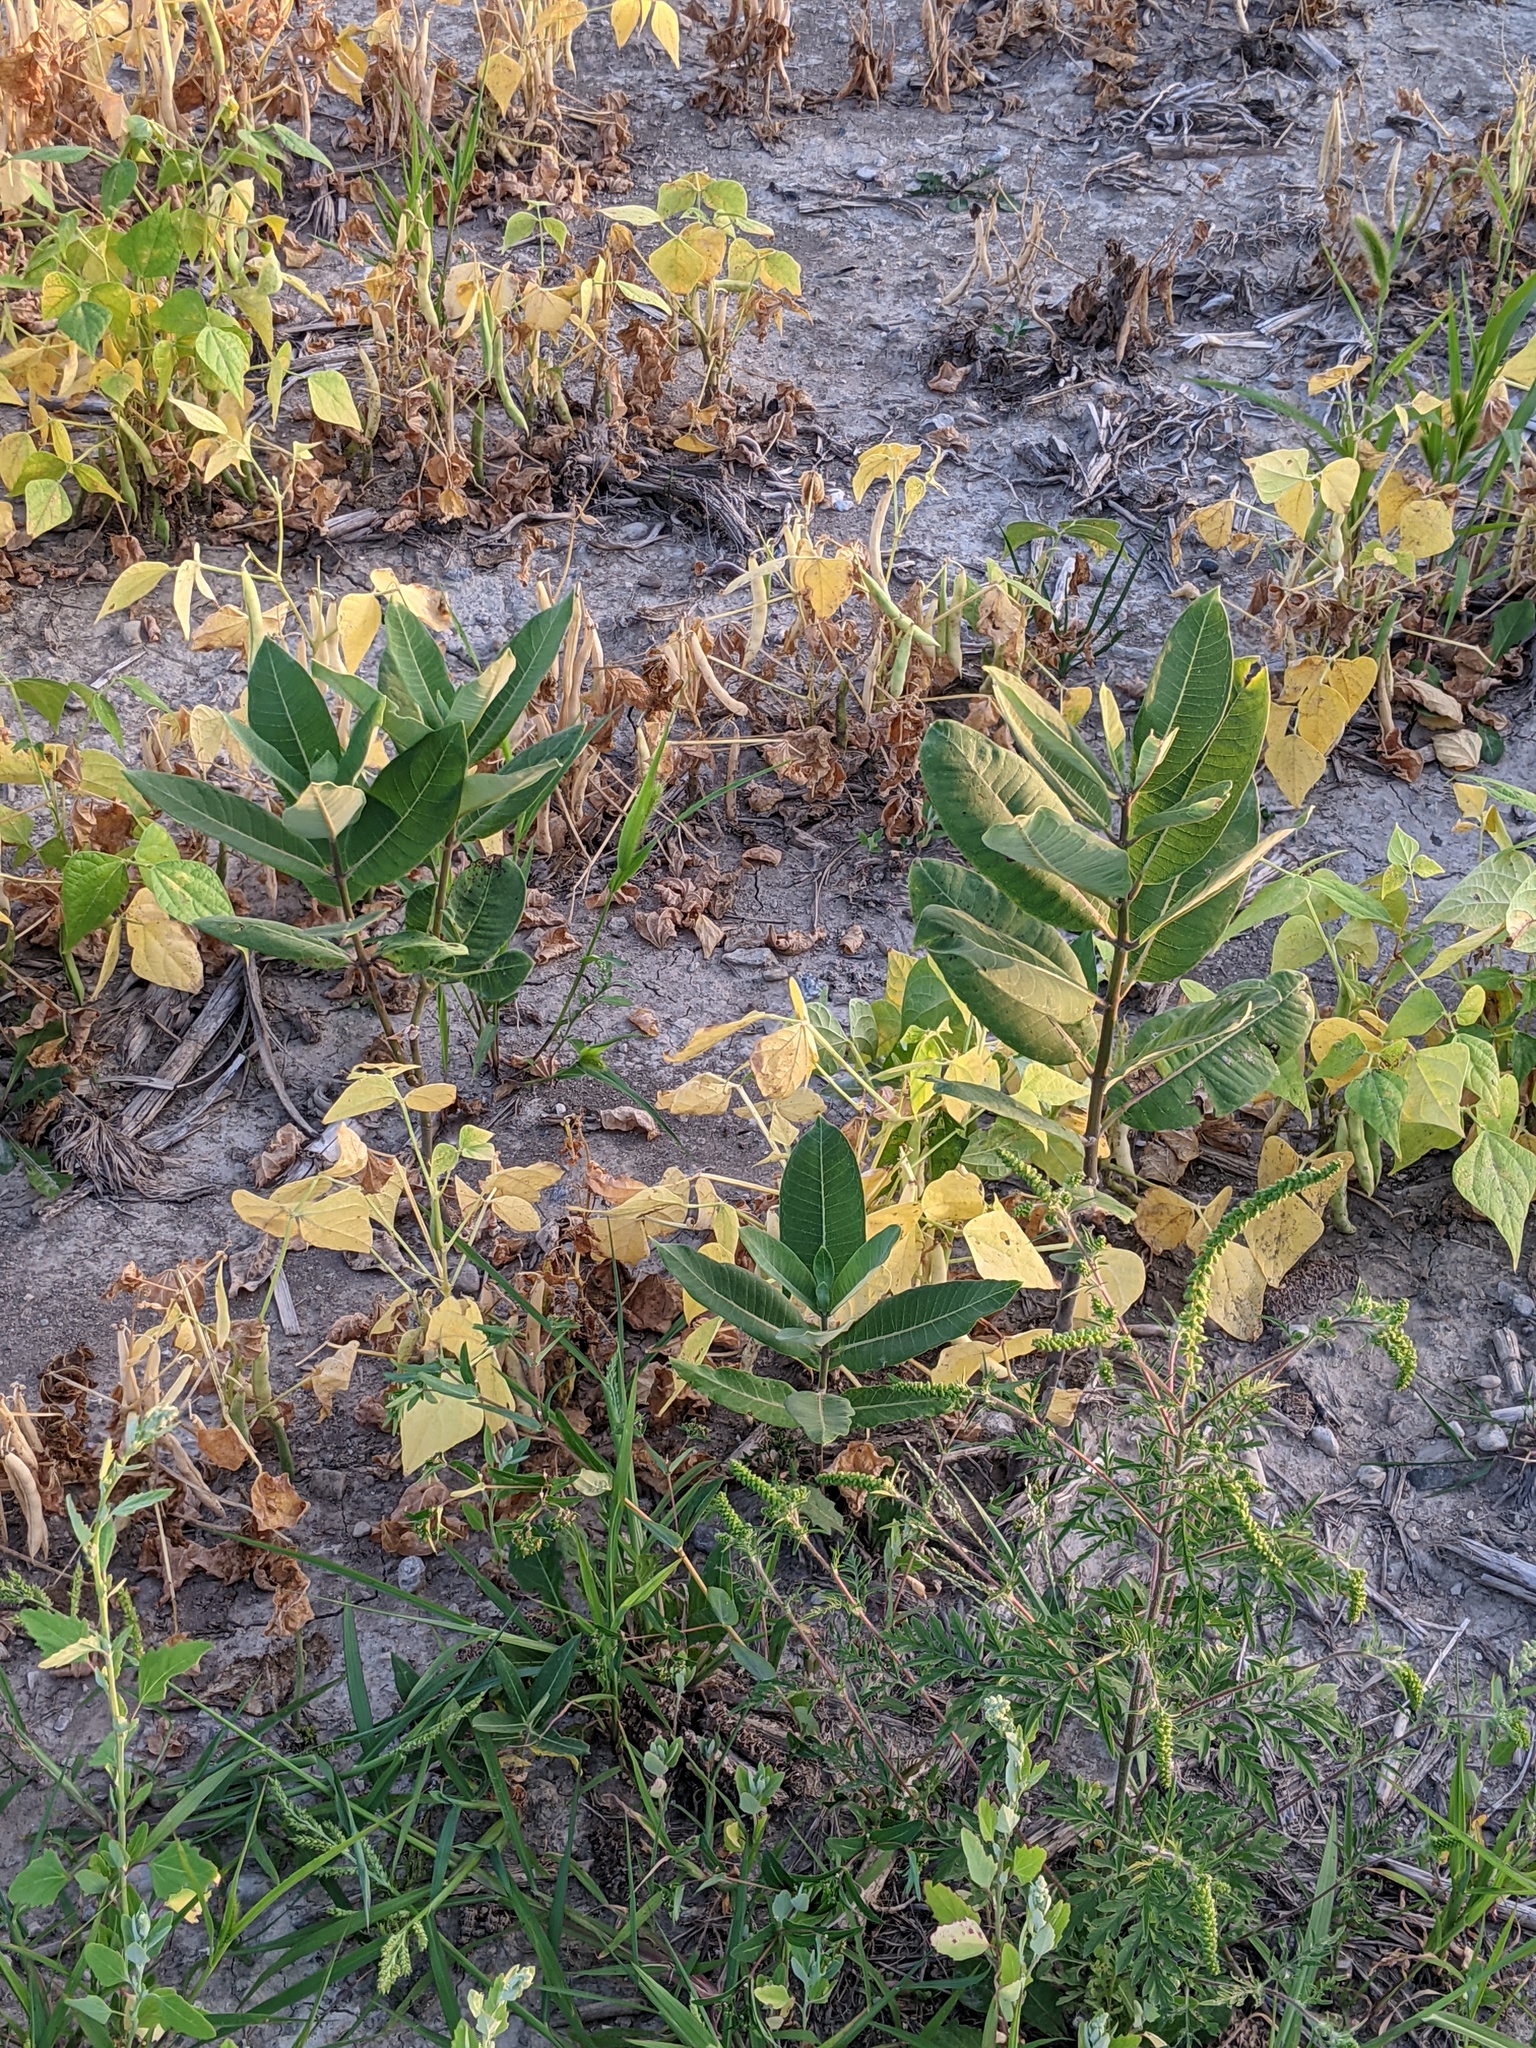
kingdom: Plantae
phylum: Tracheophyta
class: Magnoliopsida
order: Gentianales
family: Apocynaceae
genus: Asclepias
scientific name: Asclepias syriaca
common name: Common milkweed
